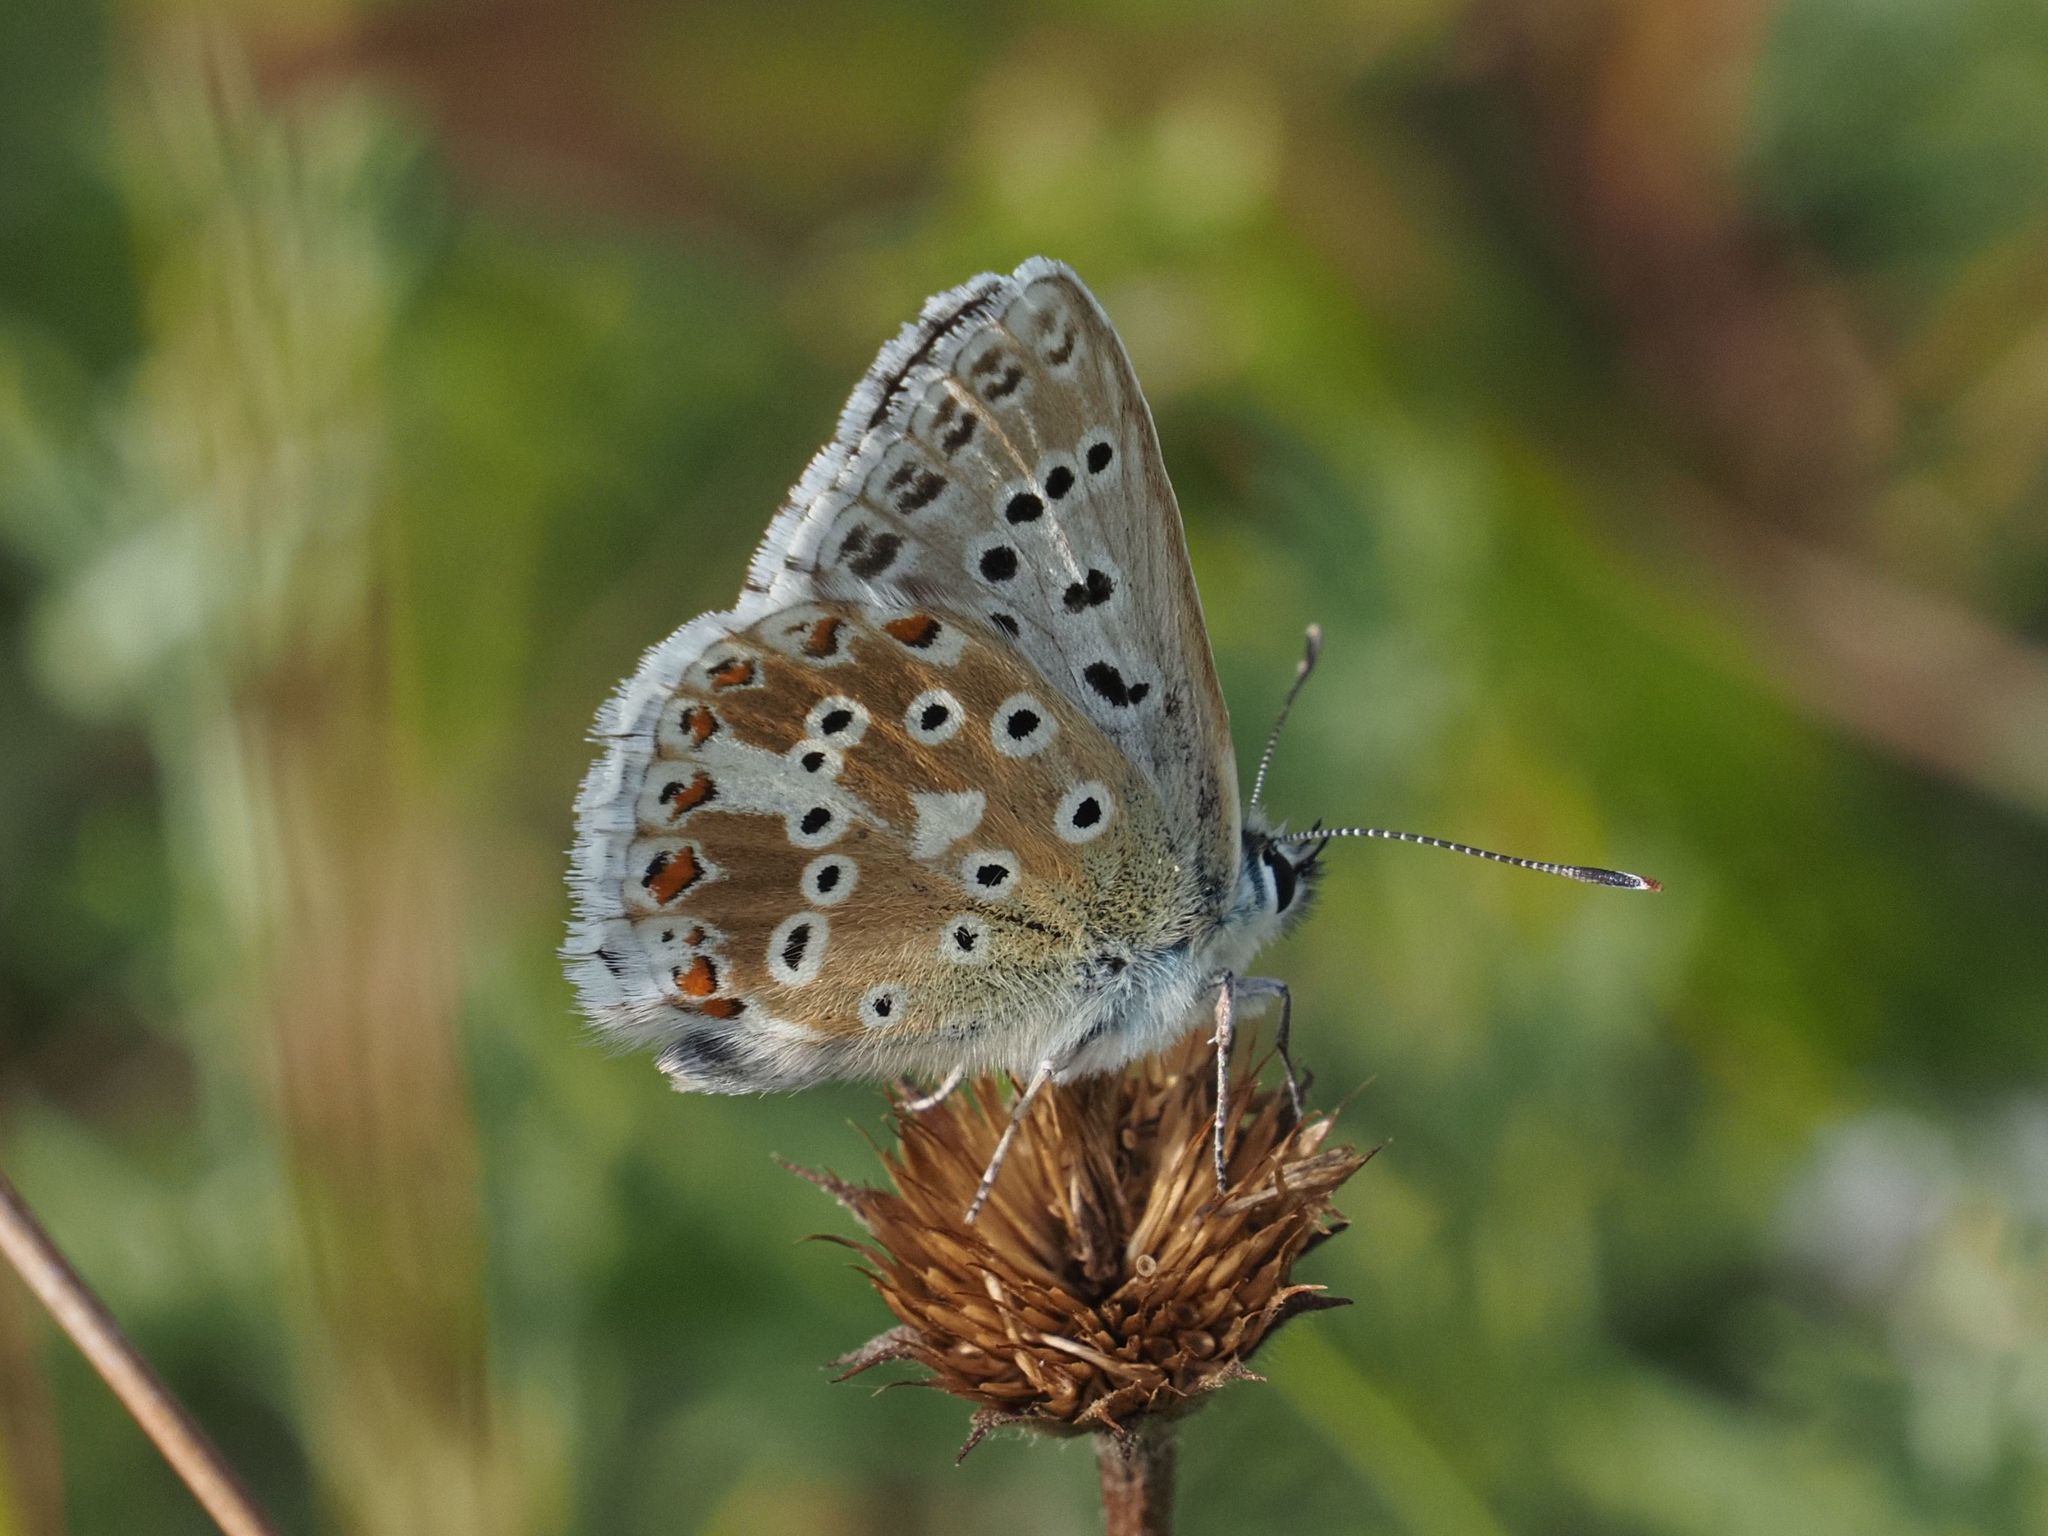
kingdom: Animalia
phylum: Arthropoda
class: Insecta
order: Lepidoptera
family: Lycaenidae
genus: Lysandra
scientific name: Lysandra coridon
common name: Chalkhill blue
